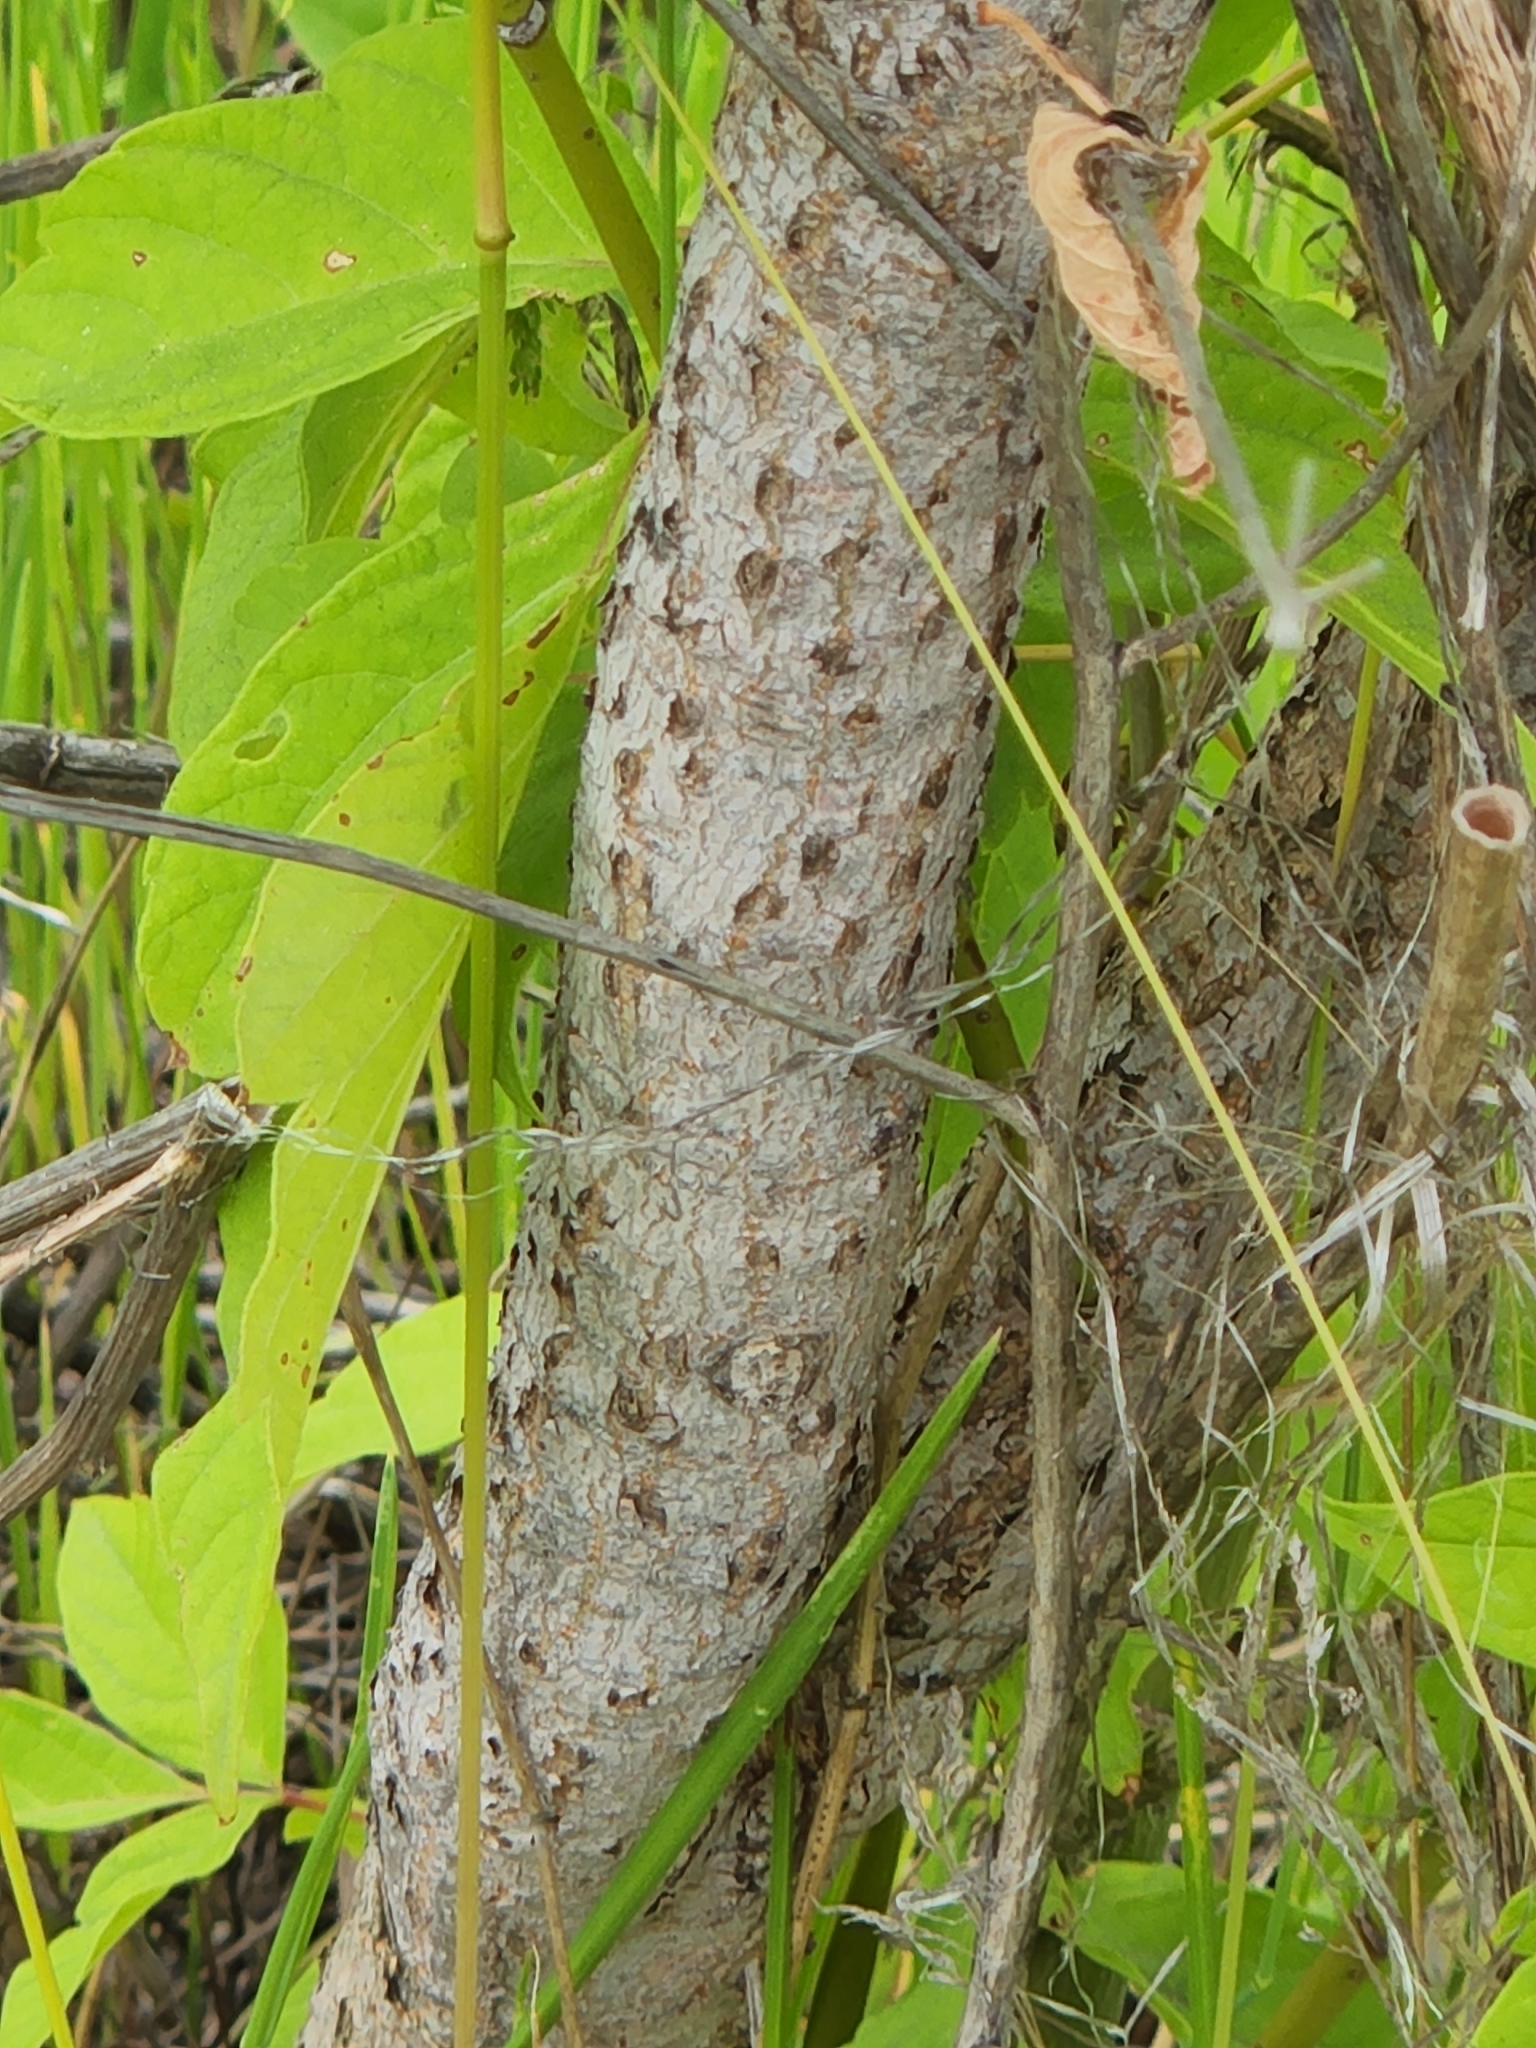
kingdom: Plantae
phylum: Tracheophyta
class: Magnoliopsida
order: Sapindales
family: Sapindaceae
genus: Acer
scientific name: Acer negundo
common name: Ashleaf maple
